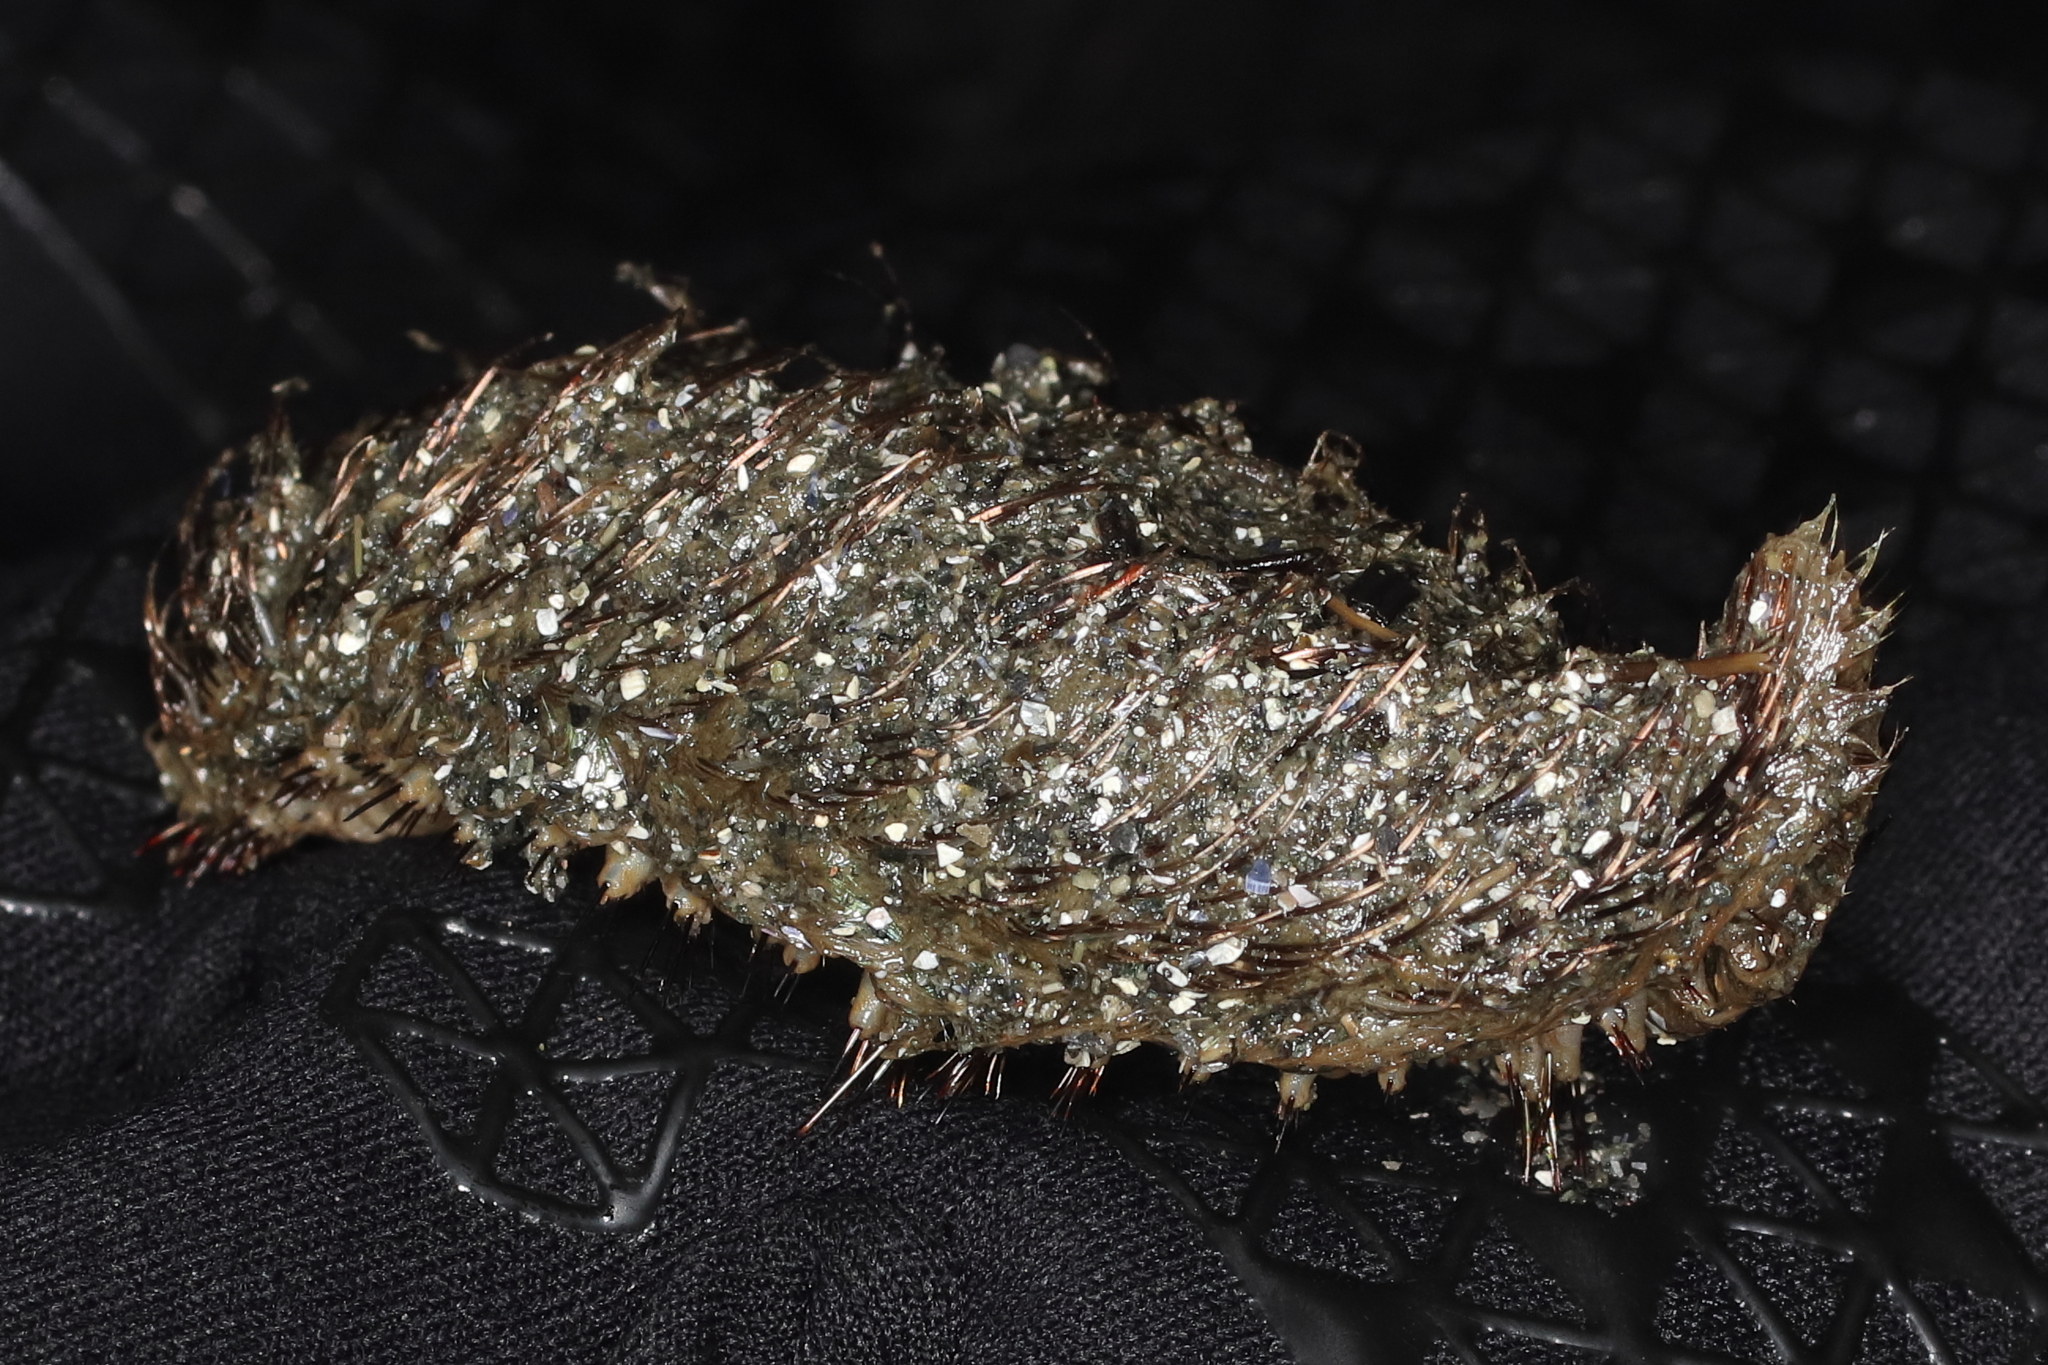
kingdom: Animalia
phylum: Annelida
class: Polychaeta
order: Phyllodocida
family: Aphroditidae
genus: Aphrodita
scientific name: Aphrodita
